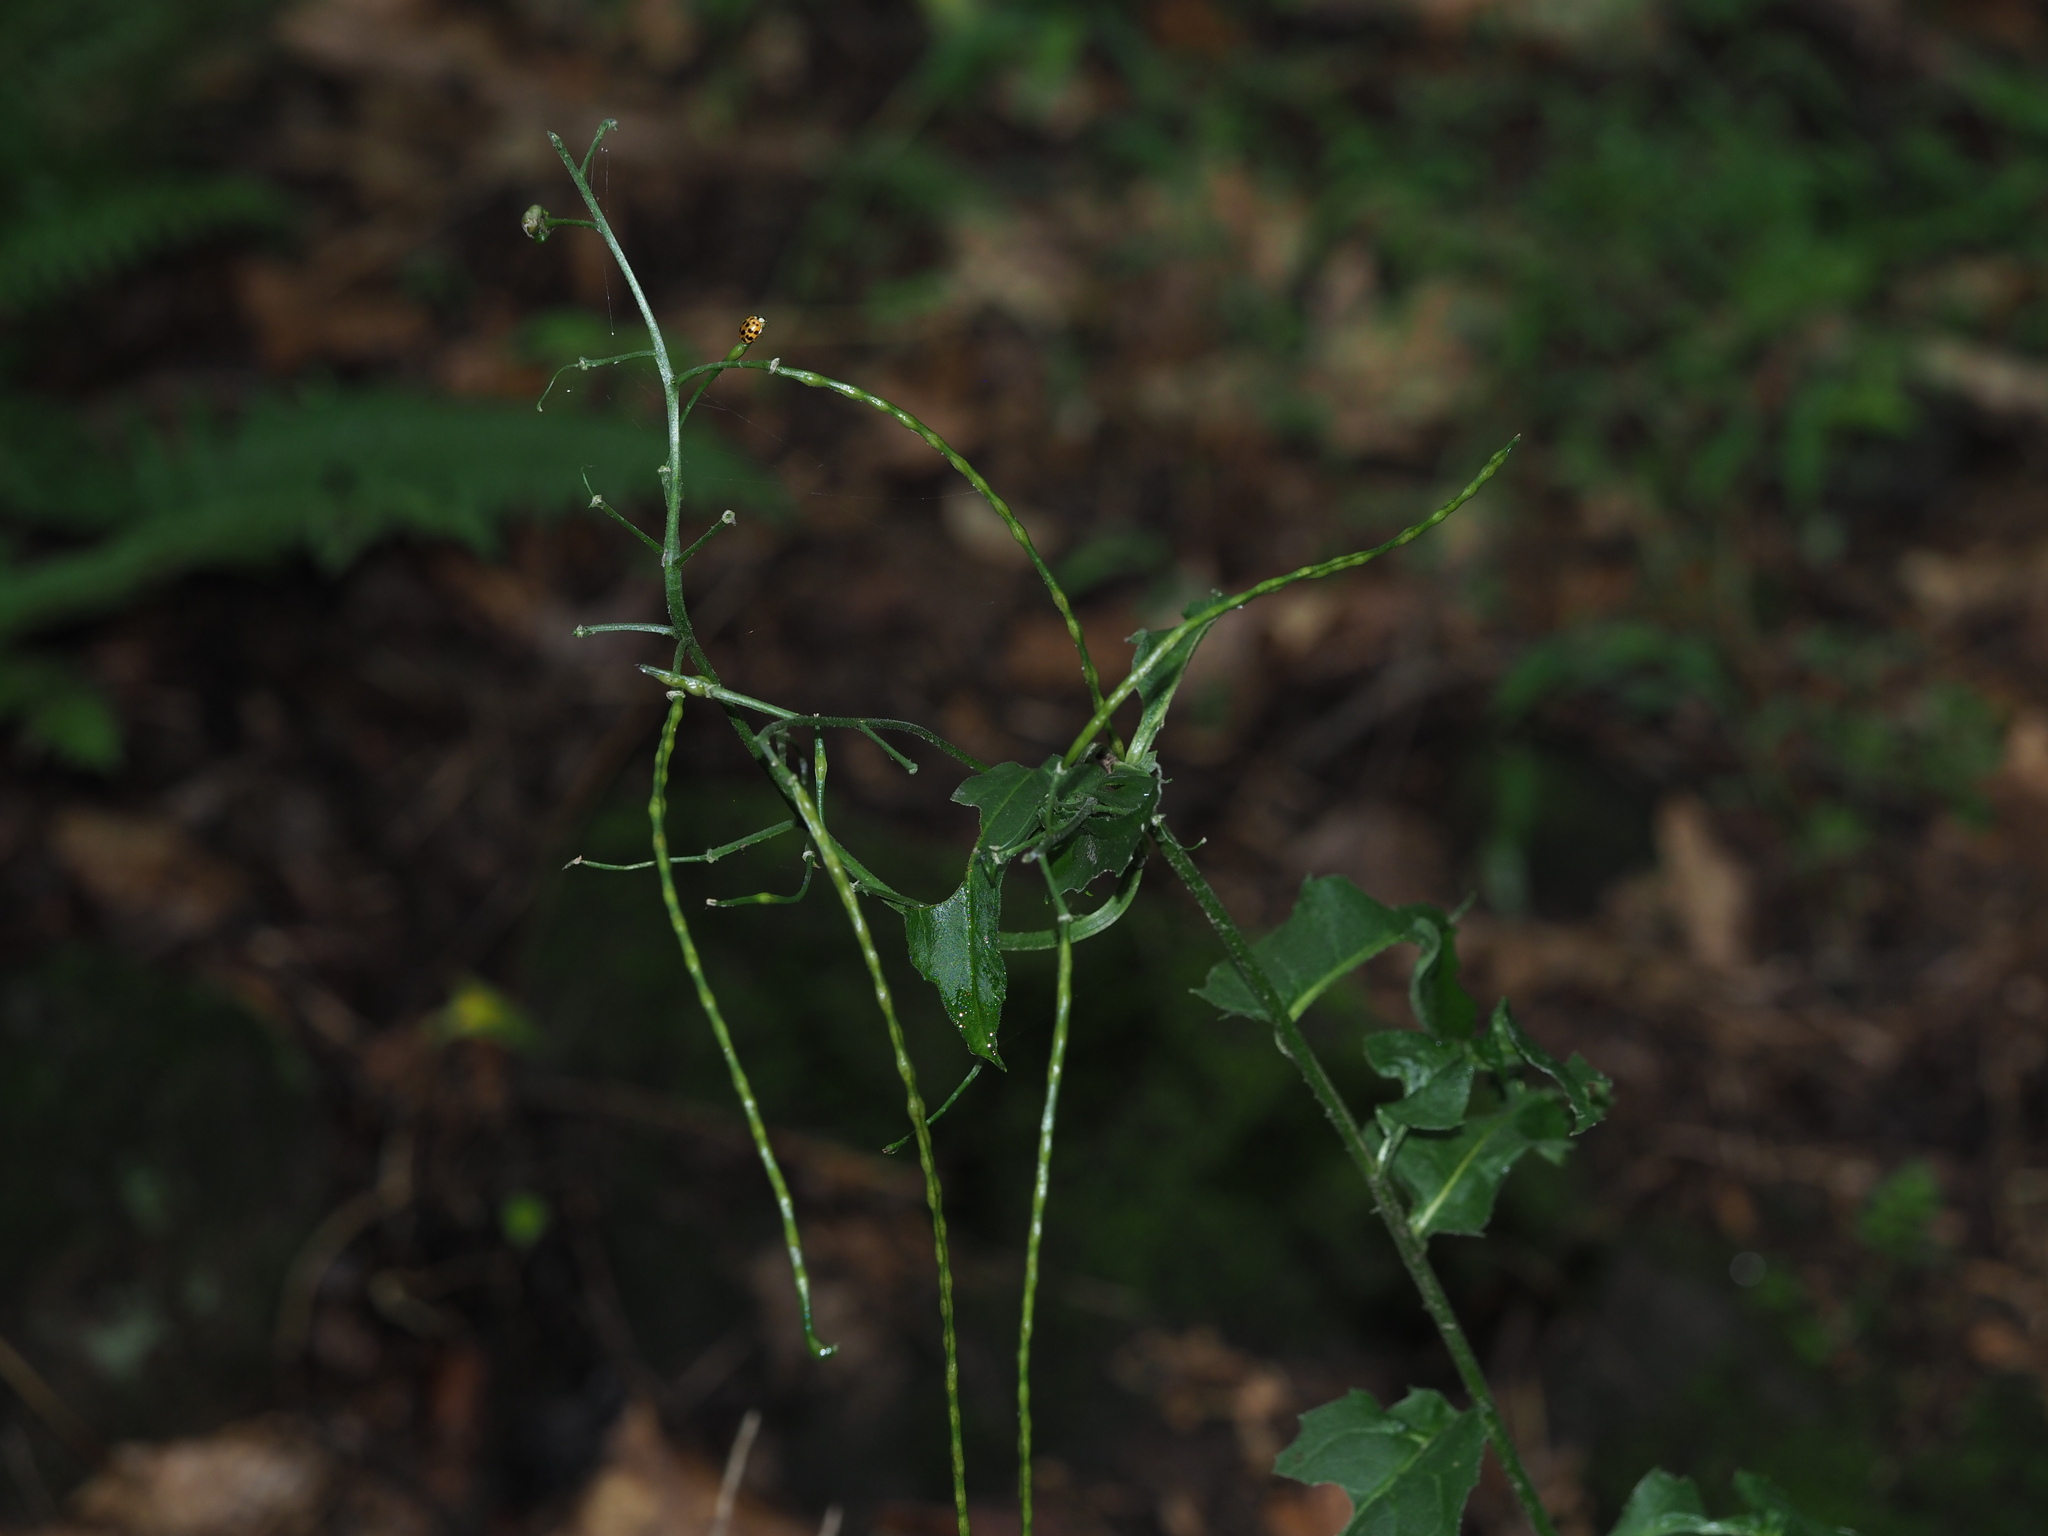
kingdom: Plantae
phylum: Tracheophyta
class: Magnoliopsida
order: Brassicales
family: Brassicaceae
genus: Hesperis
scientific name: Hesperis matronalis
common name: Dame's-violet
